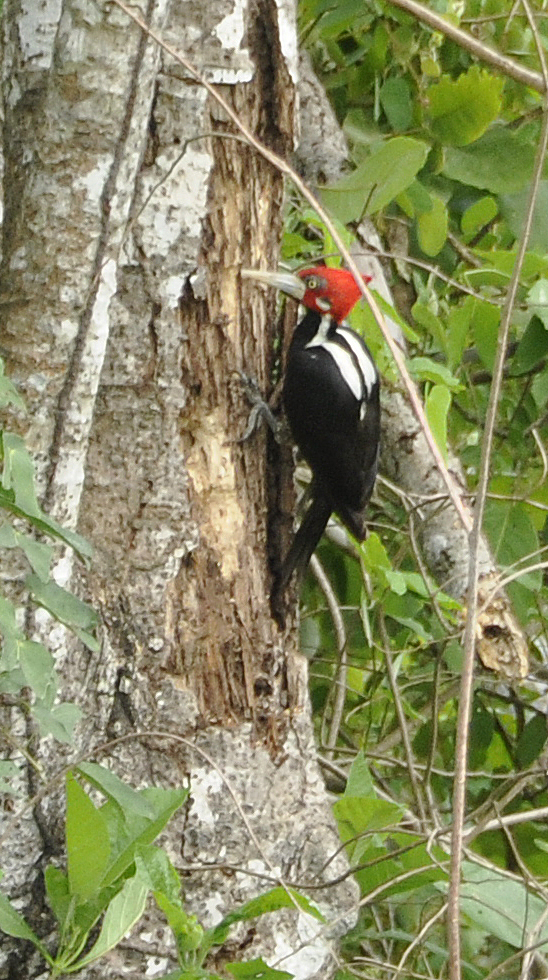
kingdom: Animalia
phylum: Chordata
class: Aves
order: Piciformes
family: Picidae
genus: Campephilus
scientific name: Campephilus melanoleucos
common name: Crimson-crested woodpecker
